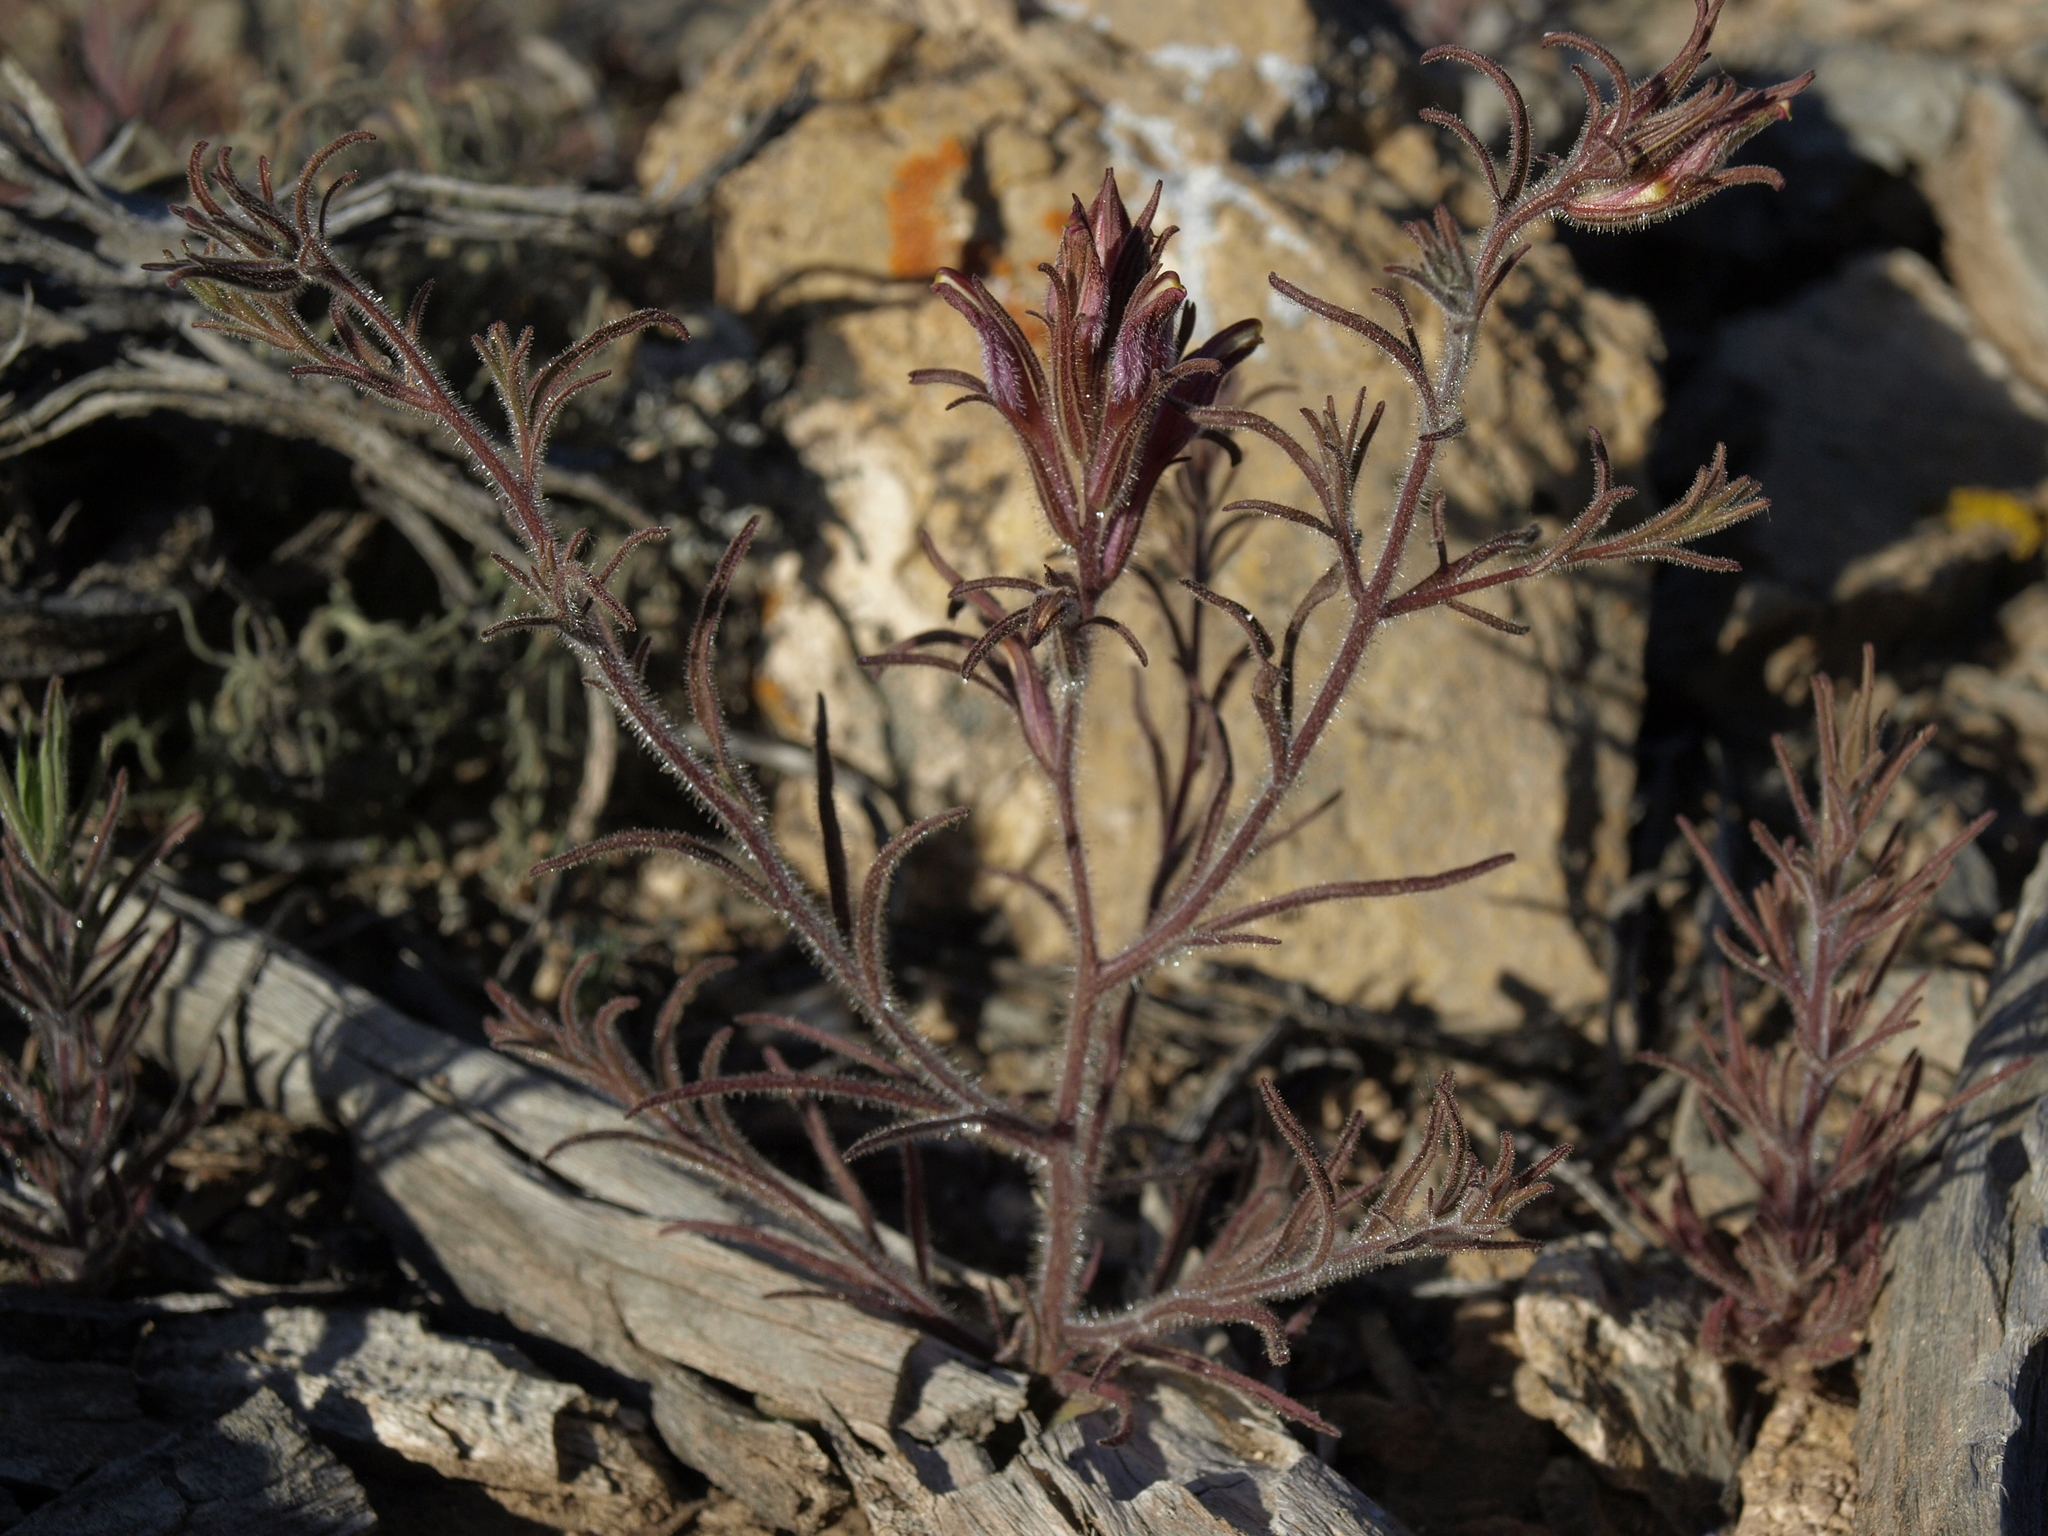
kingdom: Plantae
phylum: Tracheophyta
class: Magnoliopsida
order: Lamiales
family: Orobanchaceae
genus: Cordylanthus
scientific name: Cordylanthus kingii
